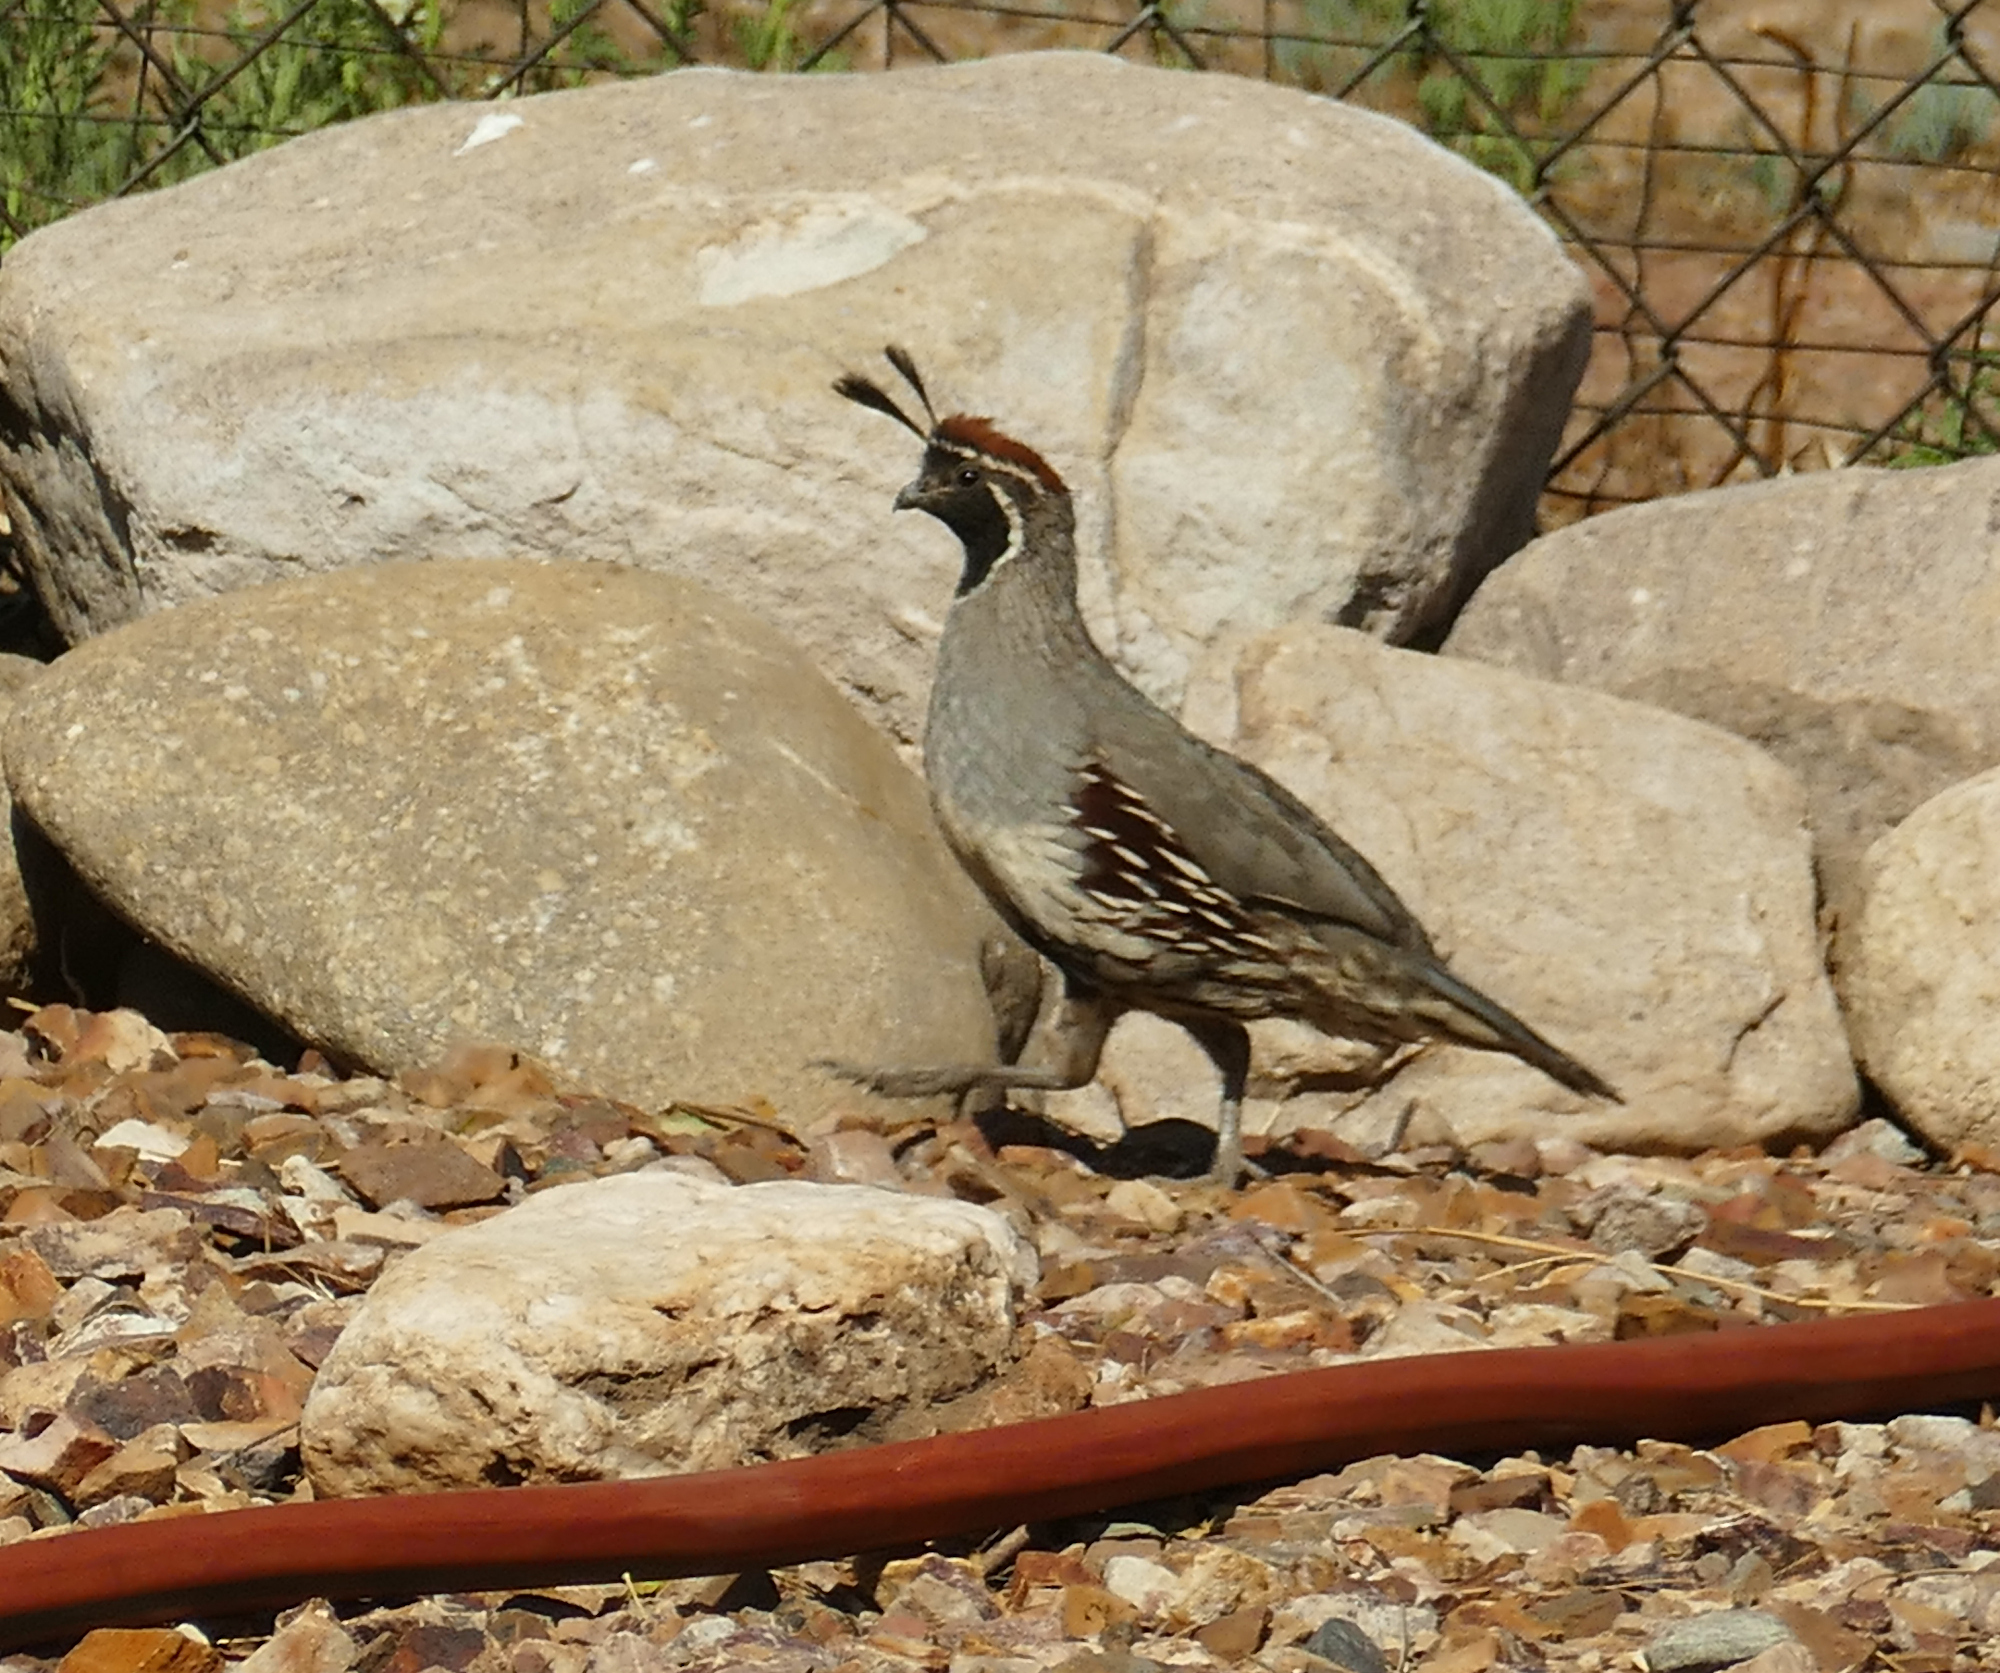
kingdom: Animalia
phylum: Chordata
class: Aves
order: Galliformes
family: Odontophoridae
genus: Callipepla
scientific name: Callipepla gambelii
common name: Gambel's quail
